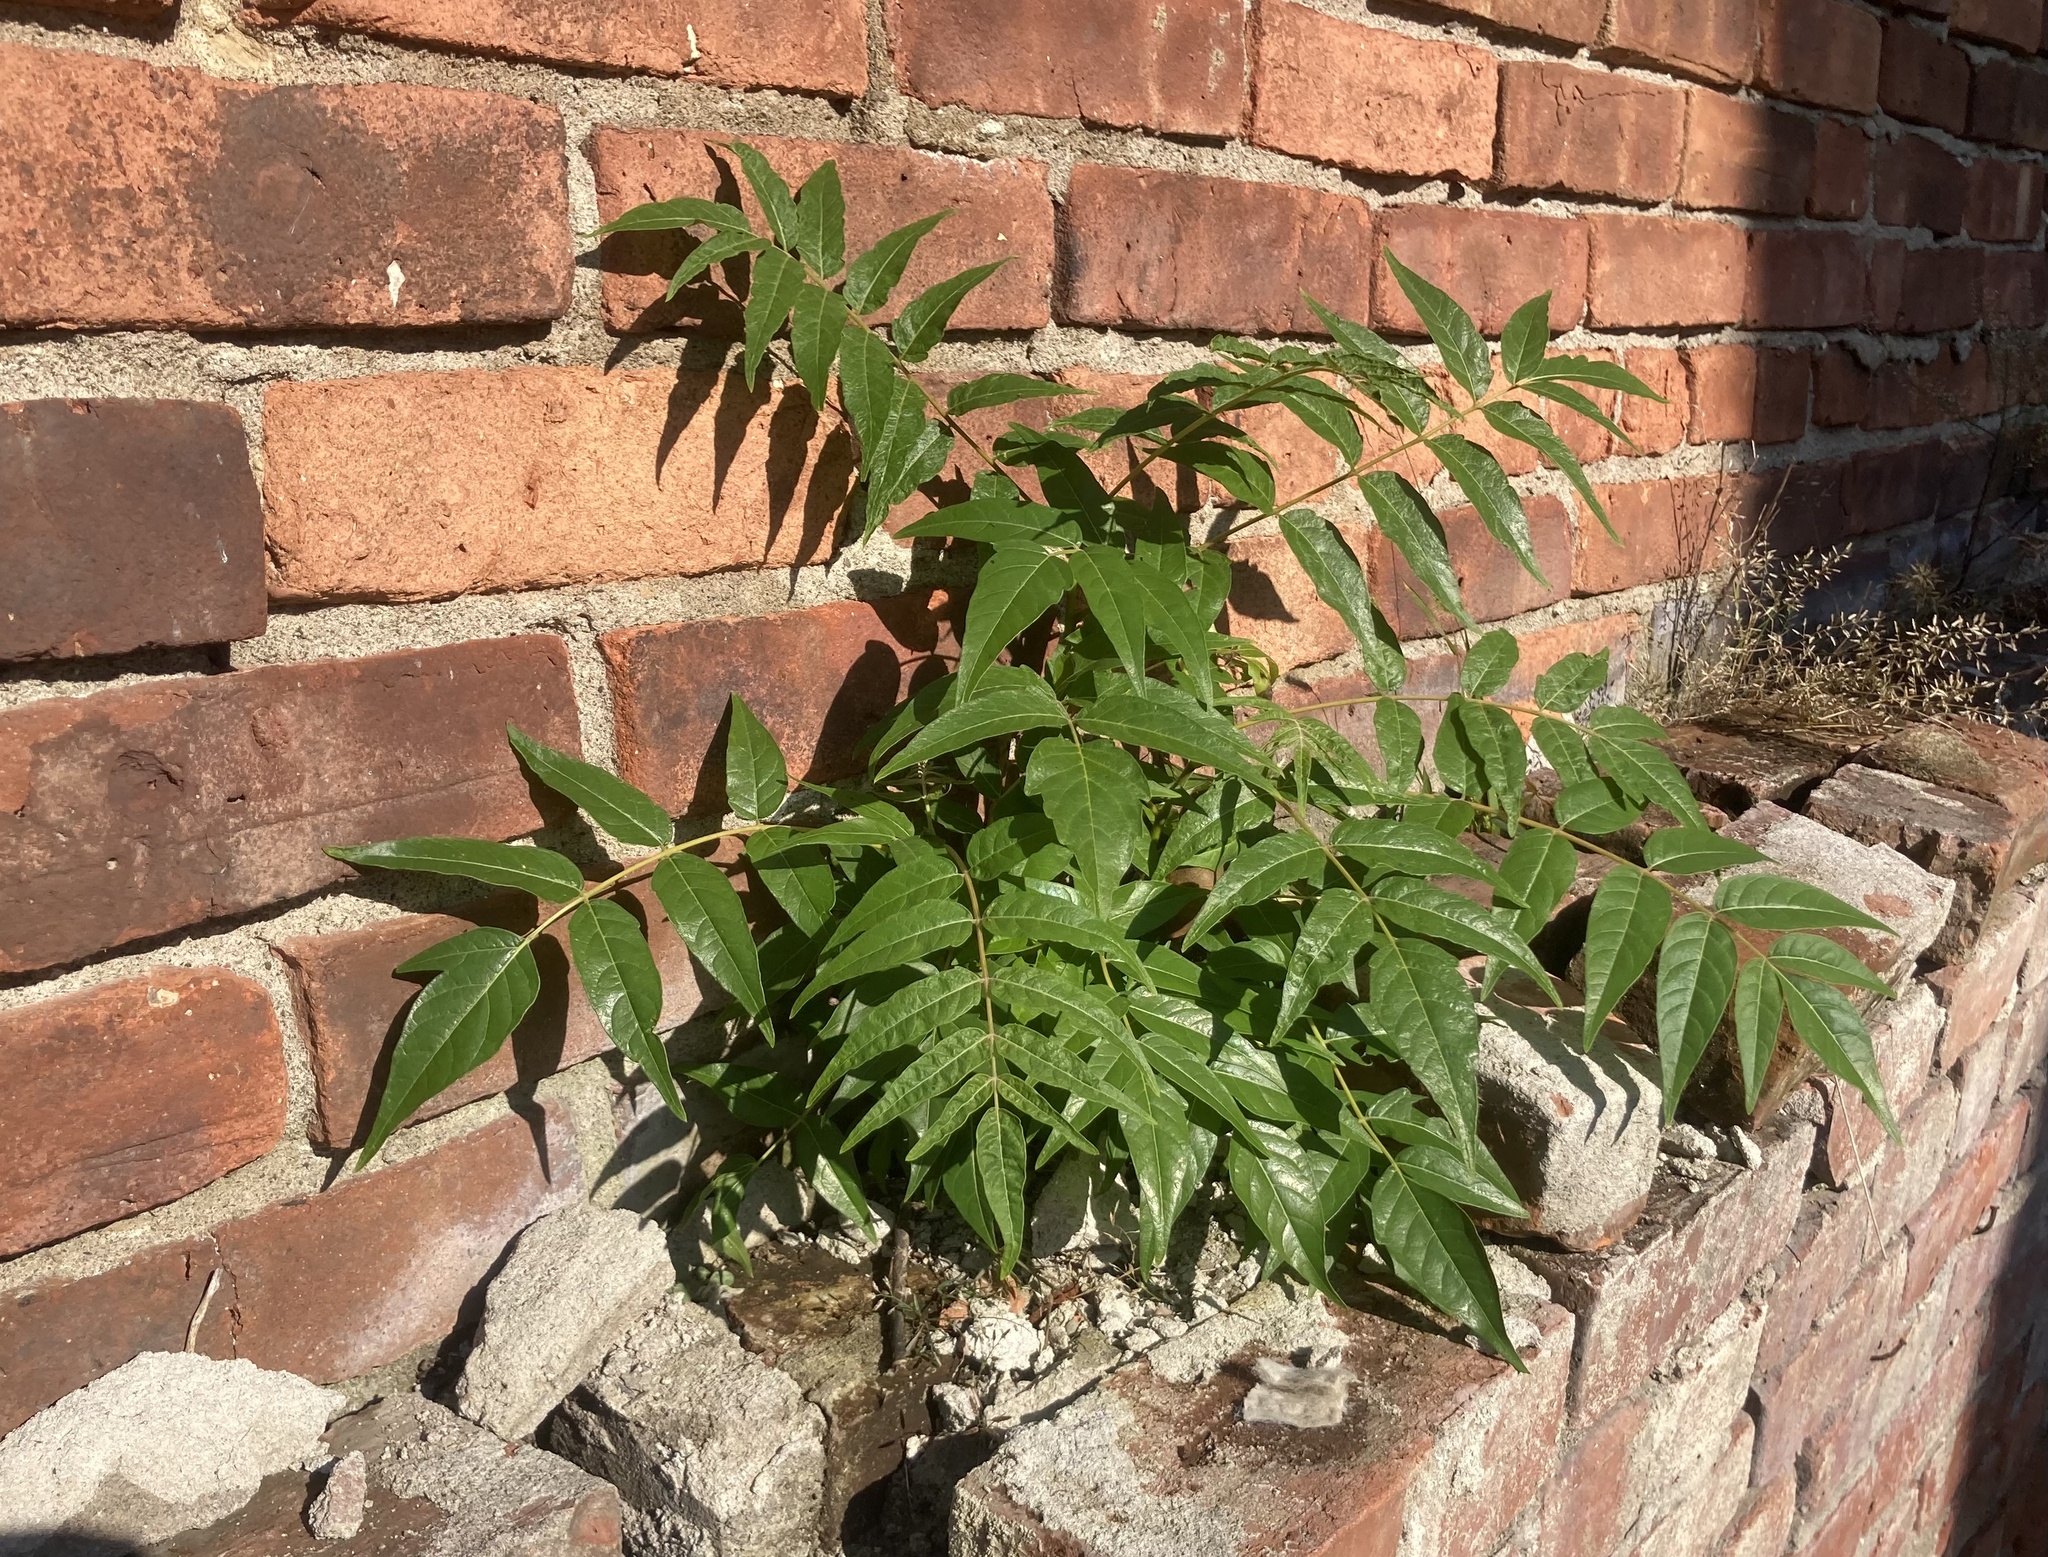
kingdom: Plantae
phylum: Tracheophyta
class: Magnoliopsida
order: Sapindales
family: Simaroubaceae
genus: Ailanthus
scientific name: Ailanthus altissima
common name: Tree-of-heaven
